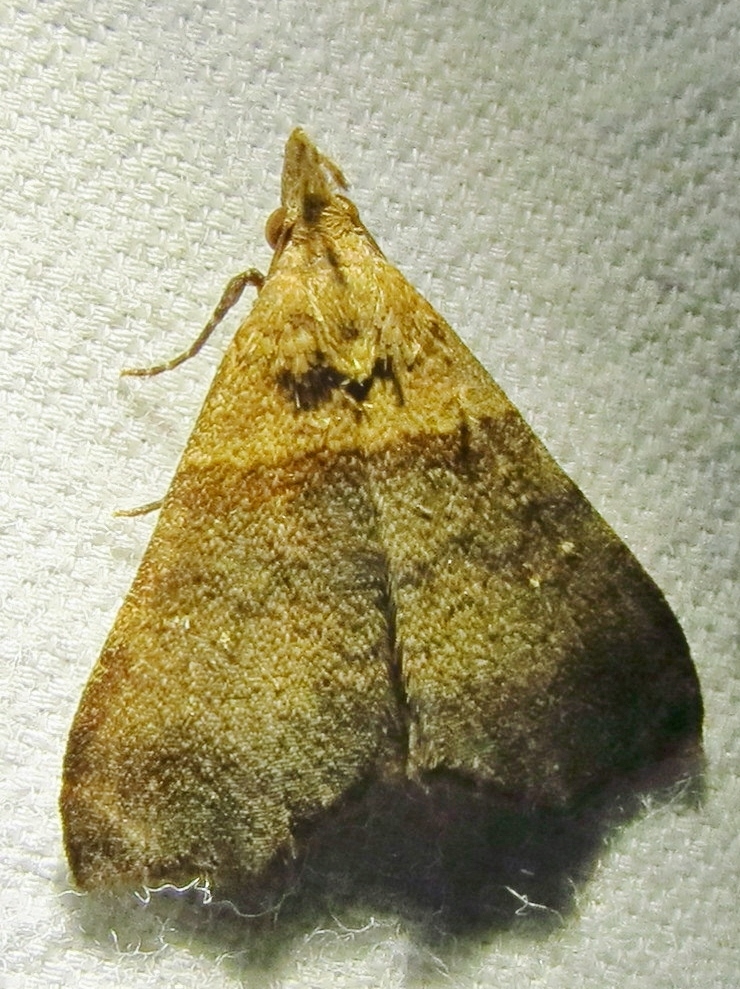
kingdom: Animalia
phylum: Arthropoda
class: Insecta
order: Lepidoptera
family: Erebidae
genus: Lascoria
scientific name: Lascoria ambigualis
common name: Ambiguous moth
